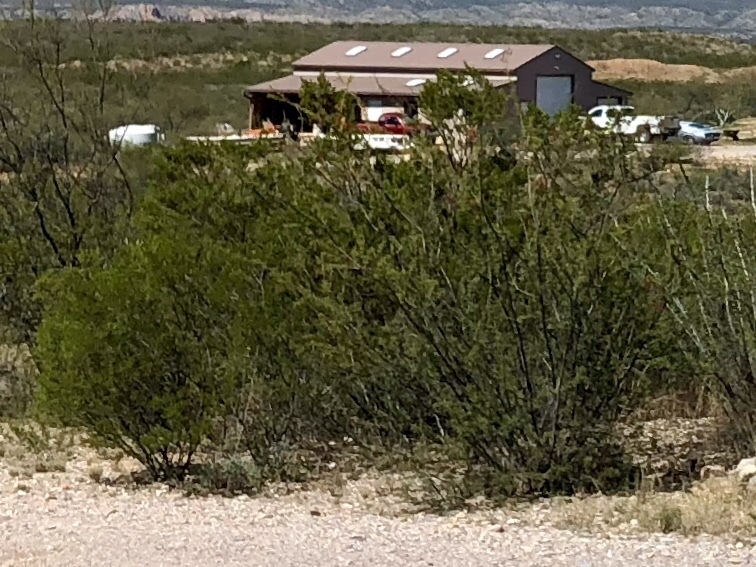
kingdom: Plantae
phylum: Tracheophyta
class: Magnoliopsida
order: Zygophyllales
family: Zygophyllaceae
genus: Larrea
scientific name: Larrea tridentata
